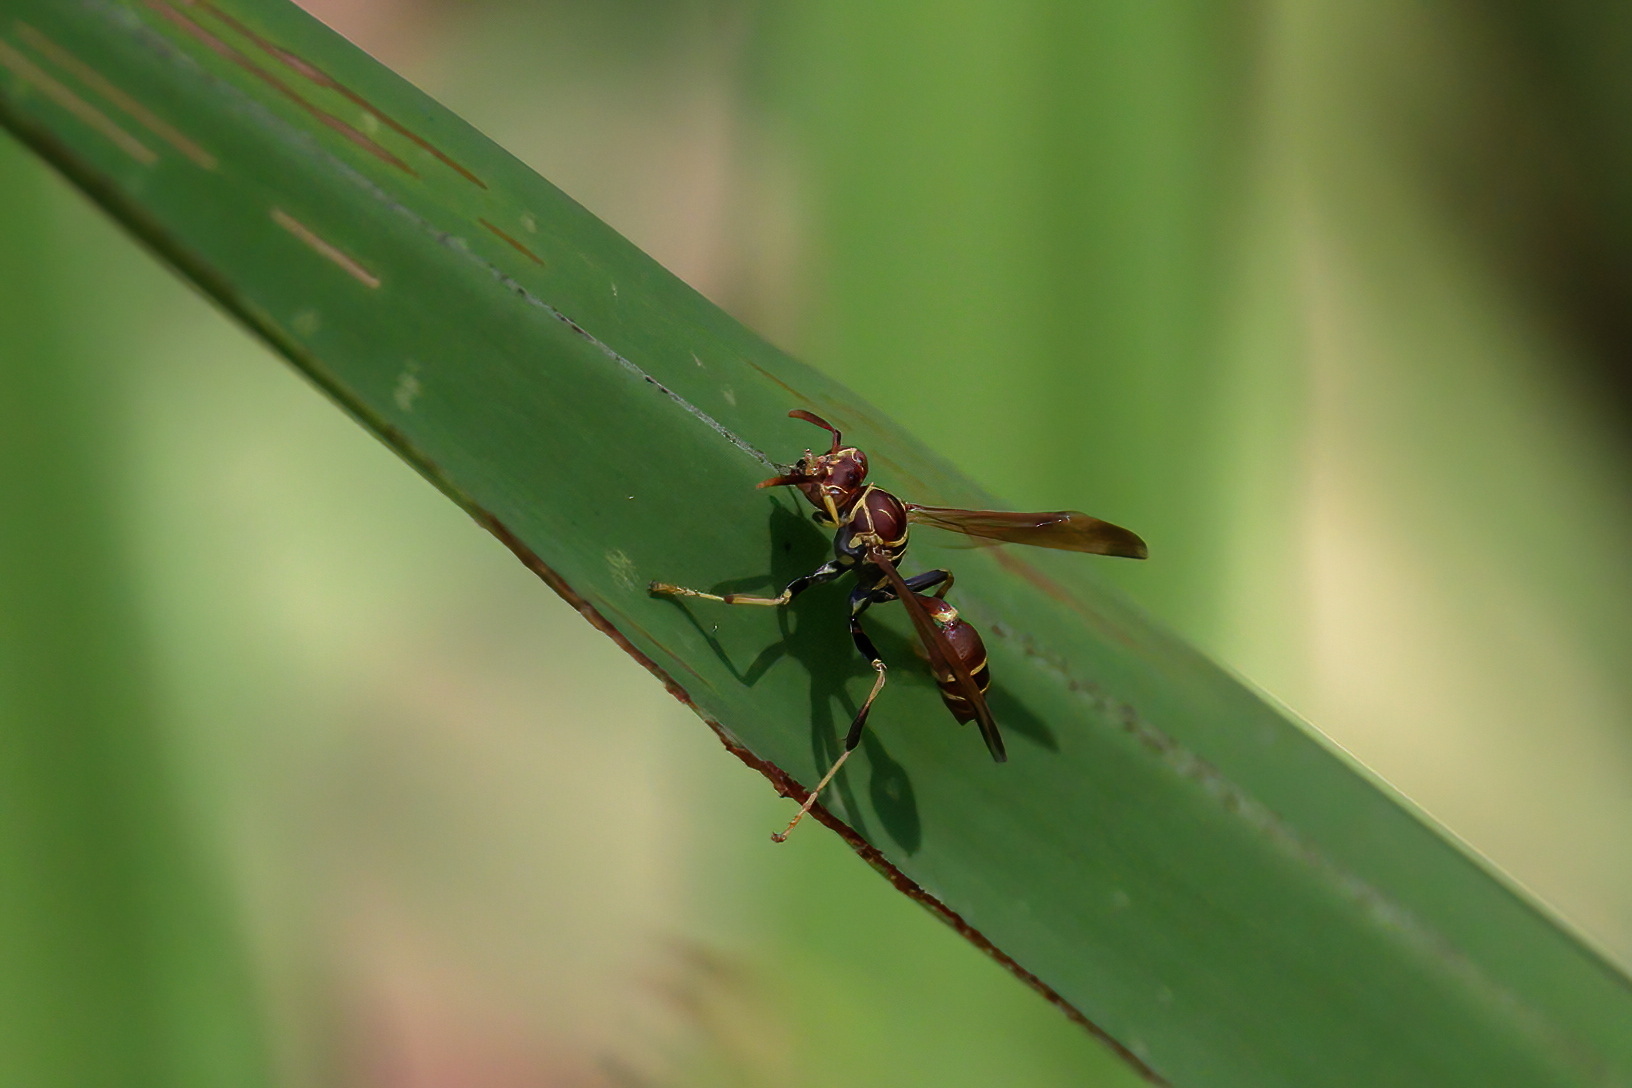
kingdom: Animalia
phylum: Arthropoda
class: Insecta
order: Hymenoptera
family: Vespidae
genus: Mischocyttarus
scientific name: Mischocyttarus mexicanus
